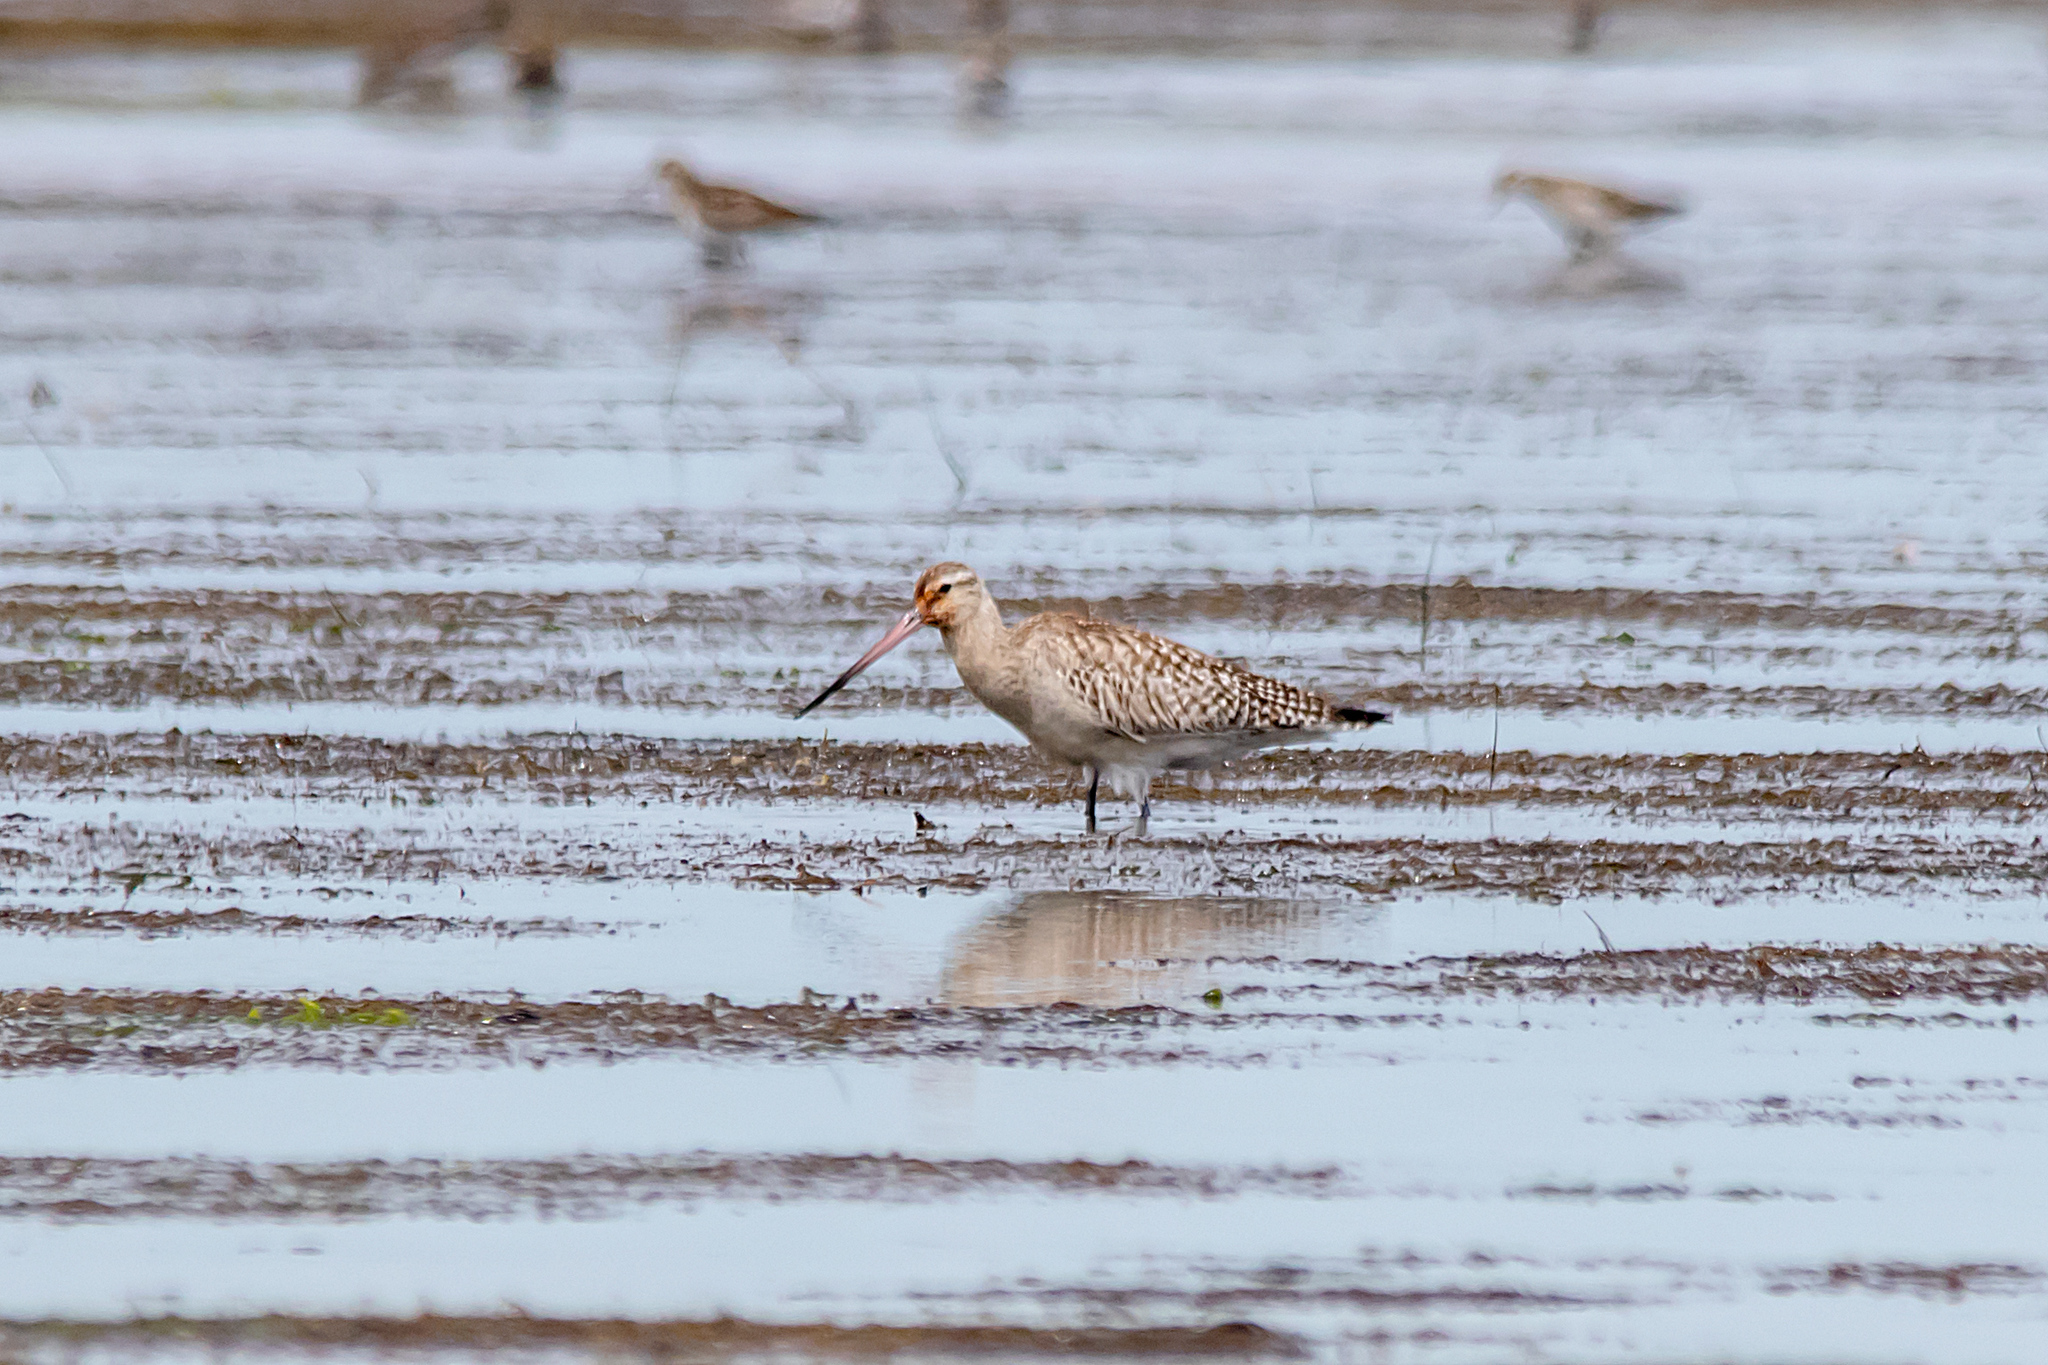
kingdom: Animalia
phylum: Chordata
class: Aves
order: Charadriiformes
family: Scolopacidae
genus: Limosa
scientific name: Limosa lapponica
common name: Bar-tailed godwit
